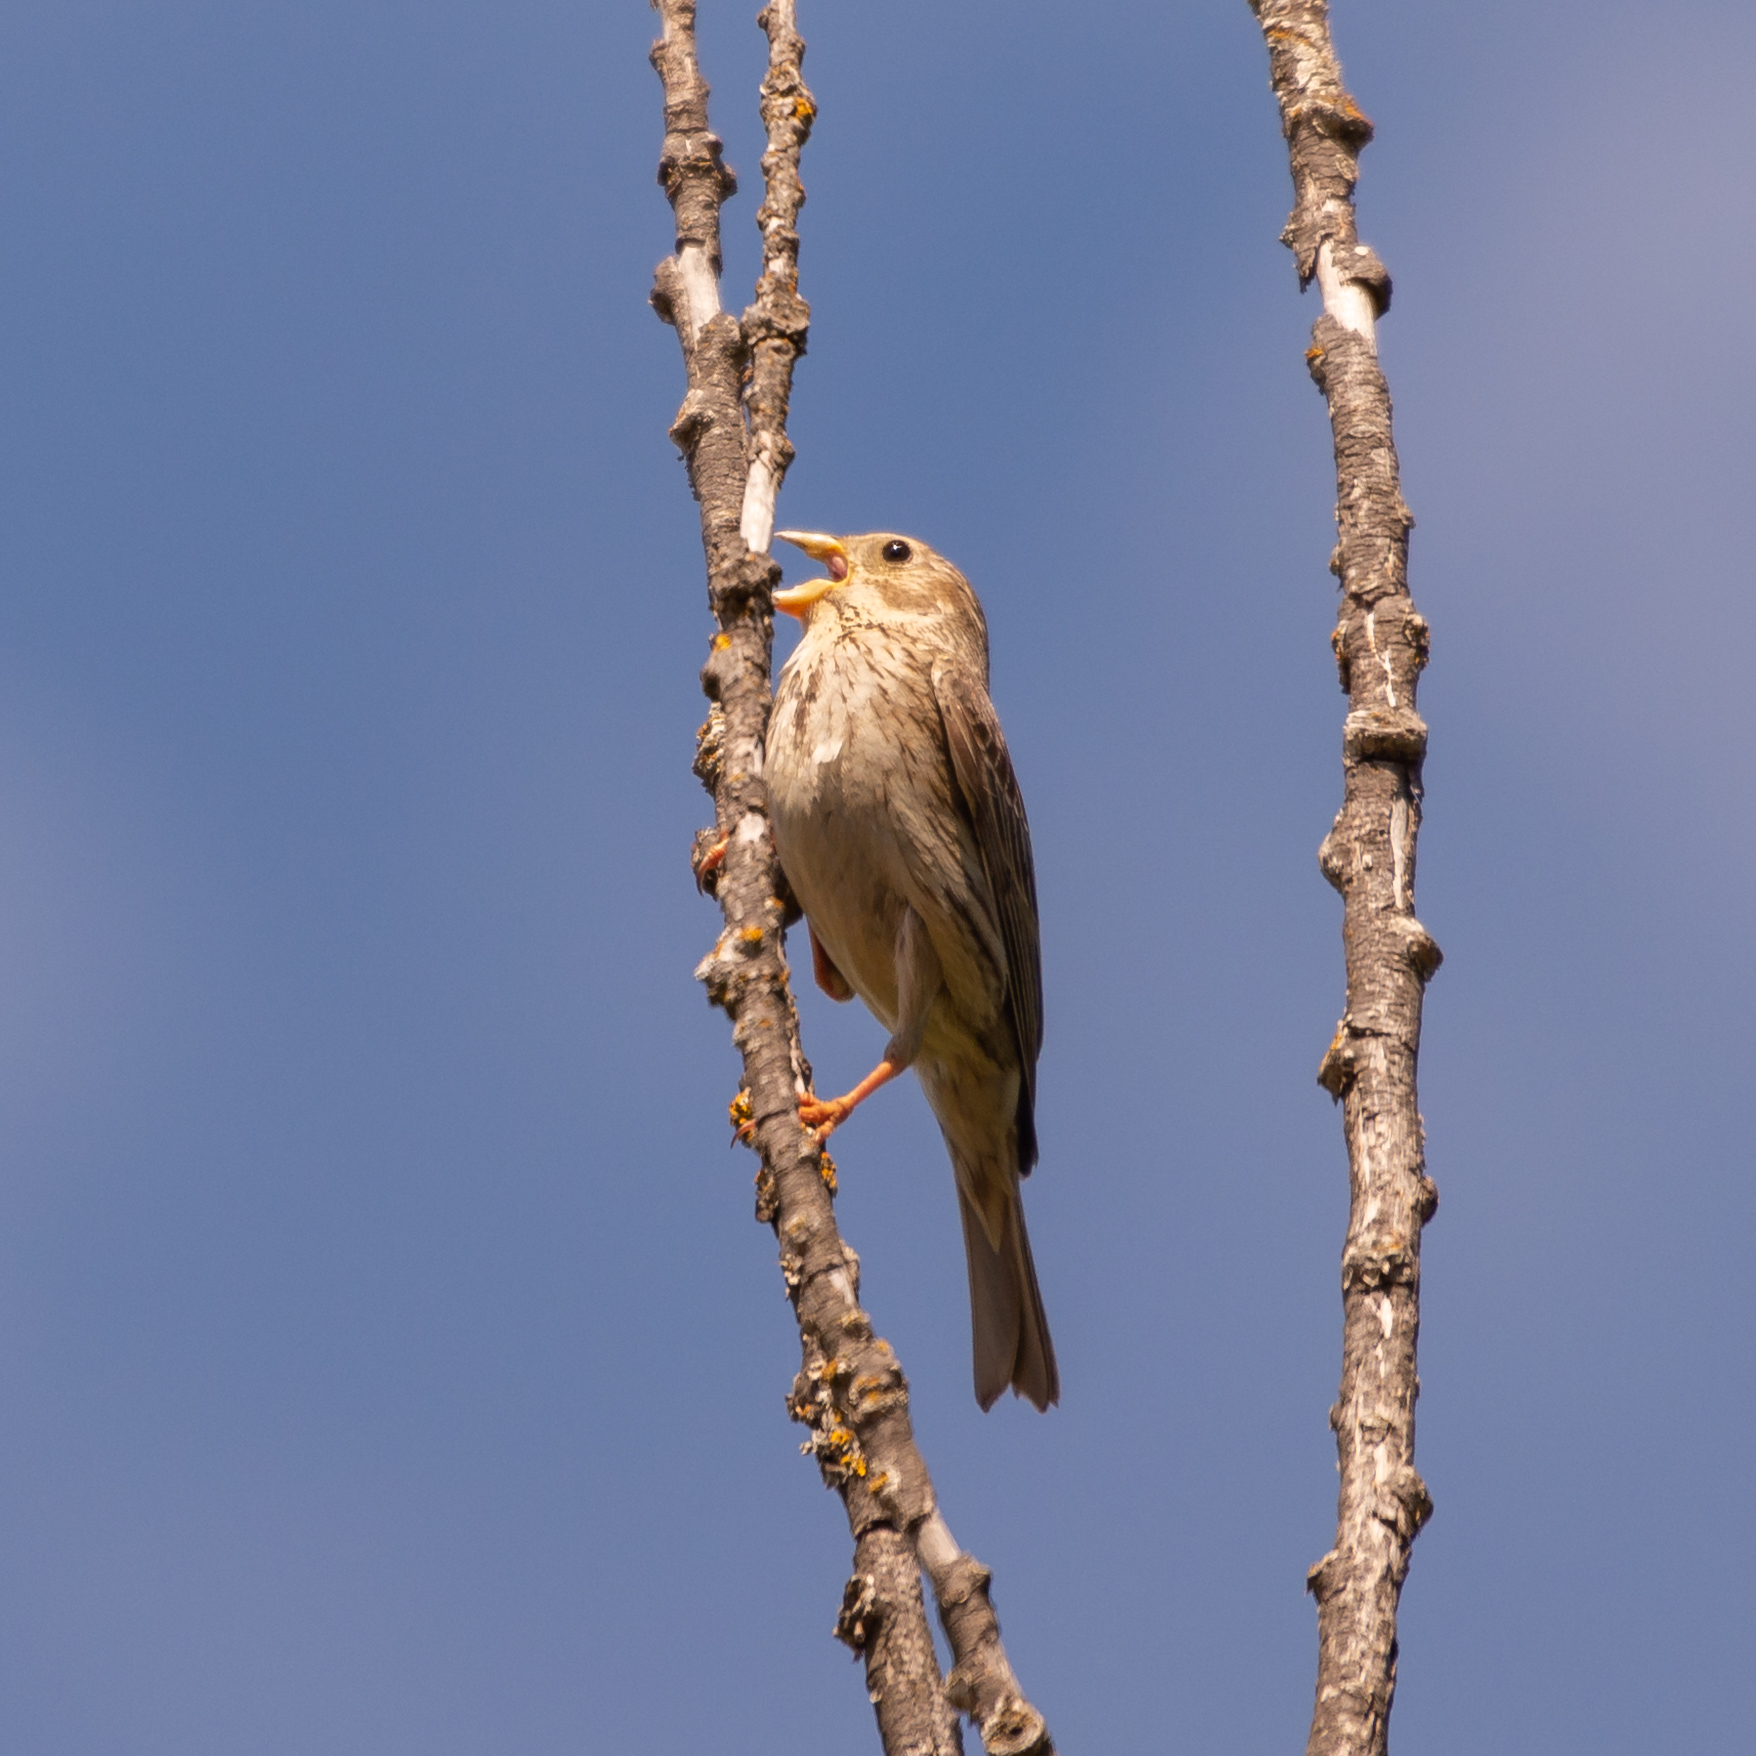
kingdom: Animalia
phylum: Chordata
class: Aves
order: Passeriformes
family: Emberizidae
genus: Emberiza
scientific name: Emberiza calandra
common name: Corn bunting
